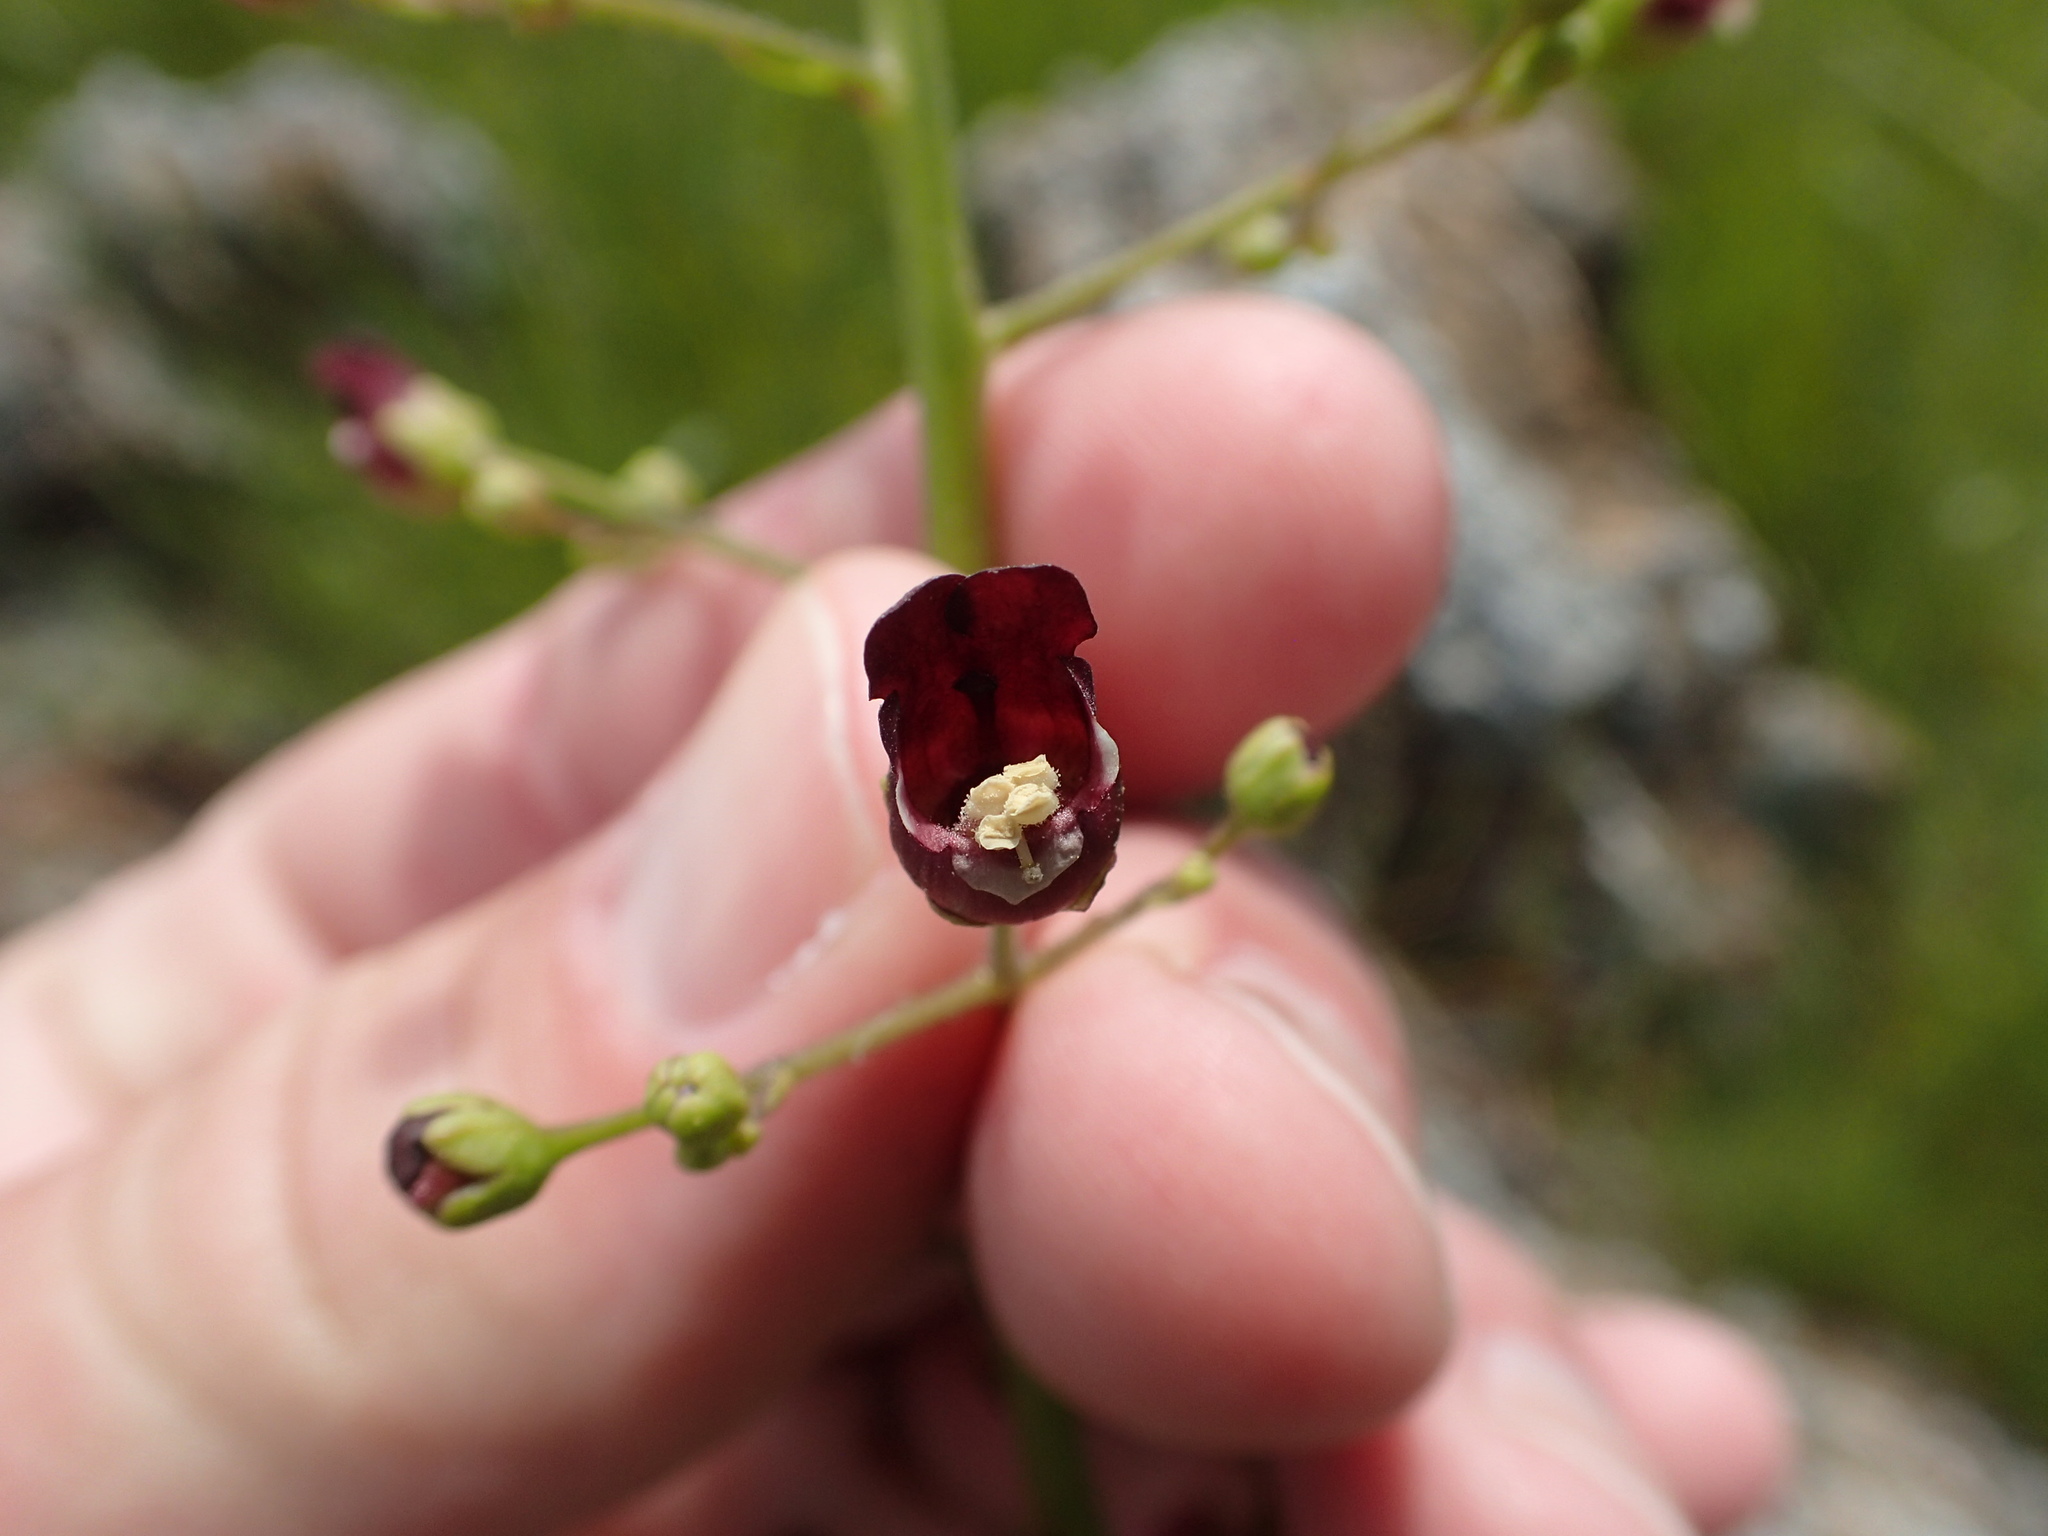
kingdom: Plantae
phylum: Tracheophyta
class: Magnoliopsida
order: Lamiales
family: Scrophulariaceae
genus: Scrophularia
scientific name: Scrophularia californica
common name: California figwort
